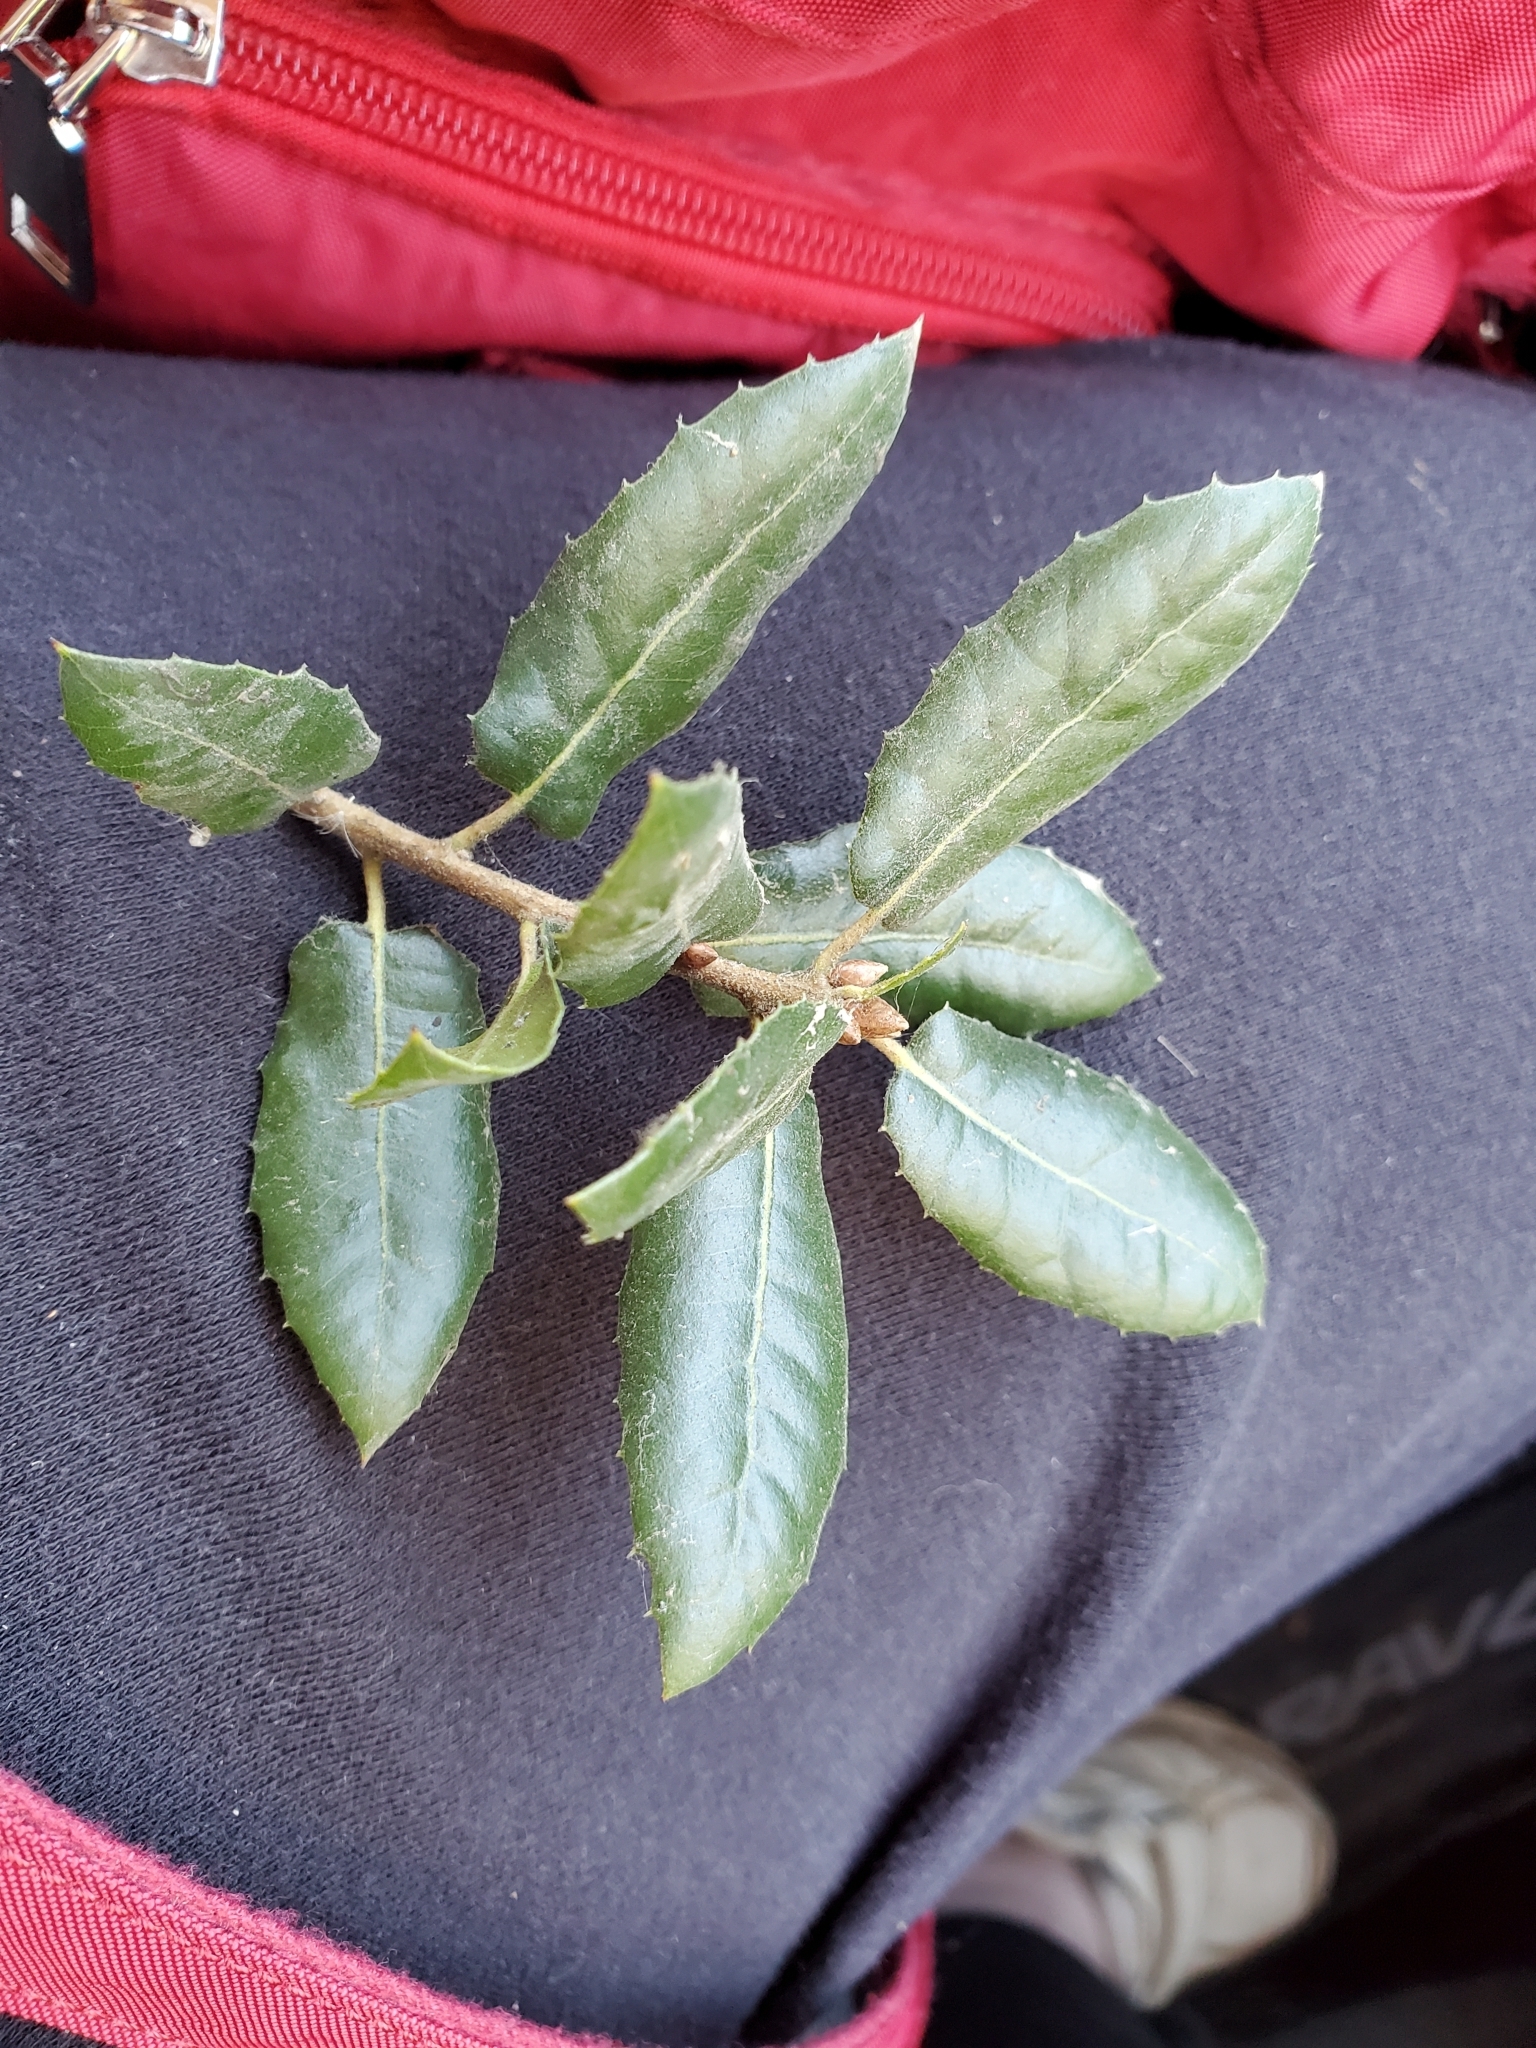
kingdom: Plantae
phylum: Tracheophyta
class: Magnoliopsida
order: Fagales
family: Fagaceae
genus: Quercus
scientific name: Quercus wislizeni
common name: Interior live oak
